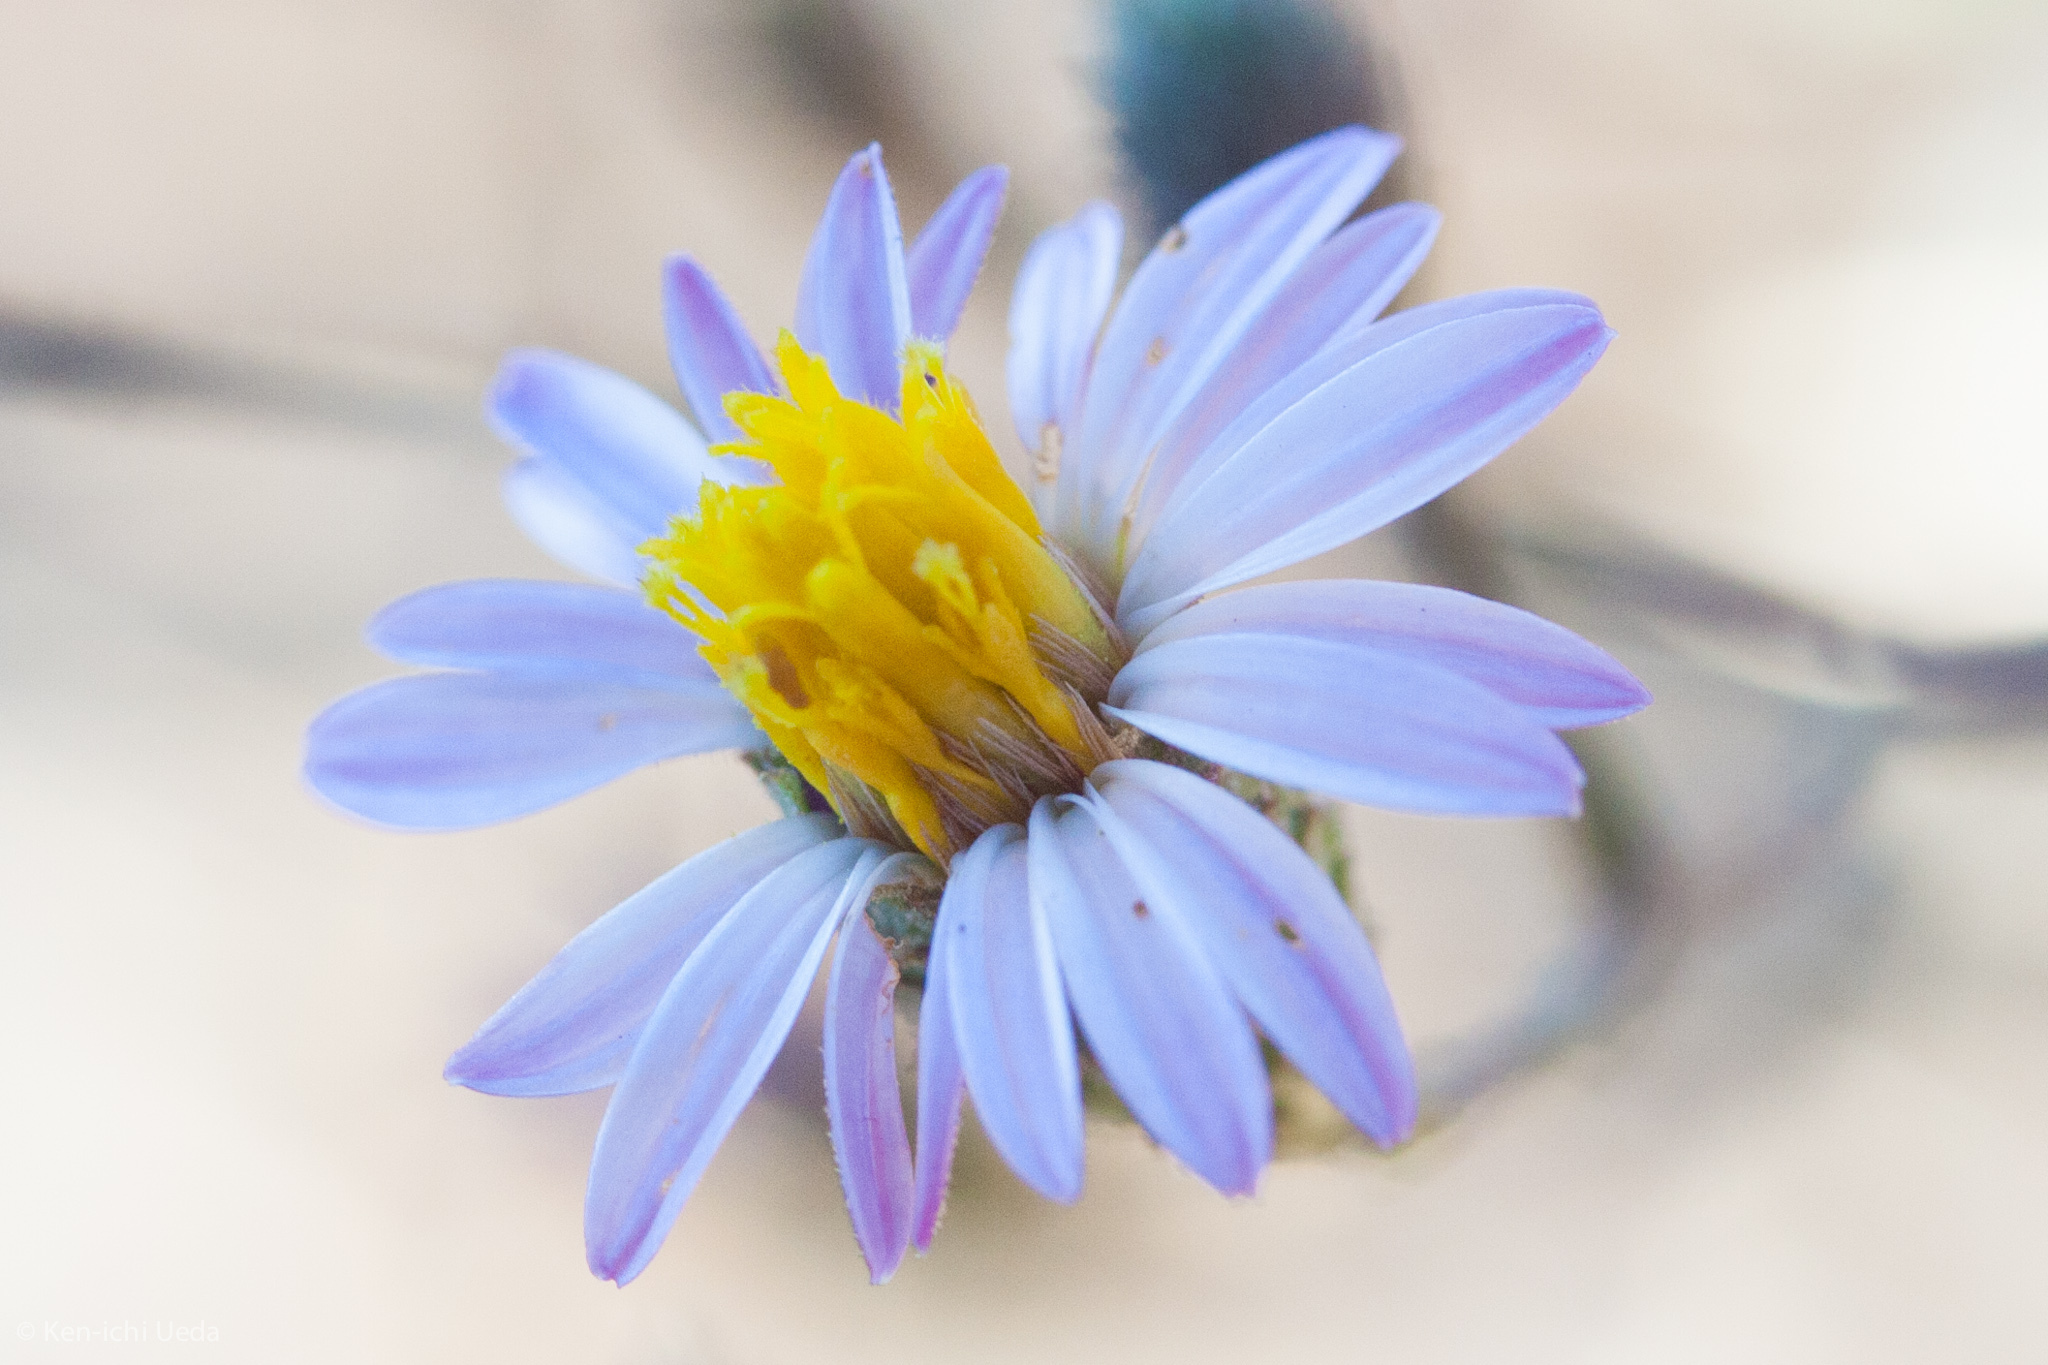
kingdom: Plantae
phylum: Tracheophyta
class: Magnoliopsida
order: Asterales
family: Asteraceae
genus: Corethrogyne
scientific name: Corethrogyne filaginifolia
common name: Sand-aster
